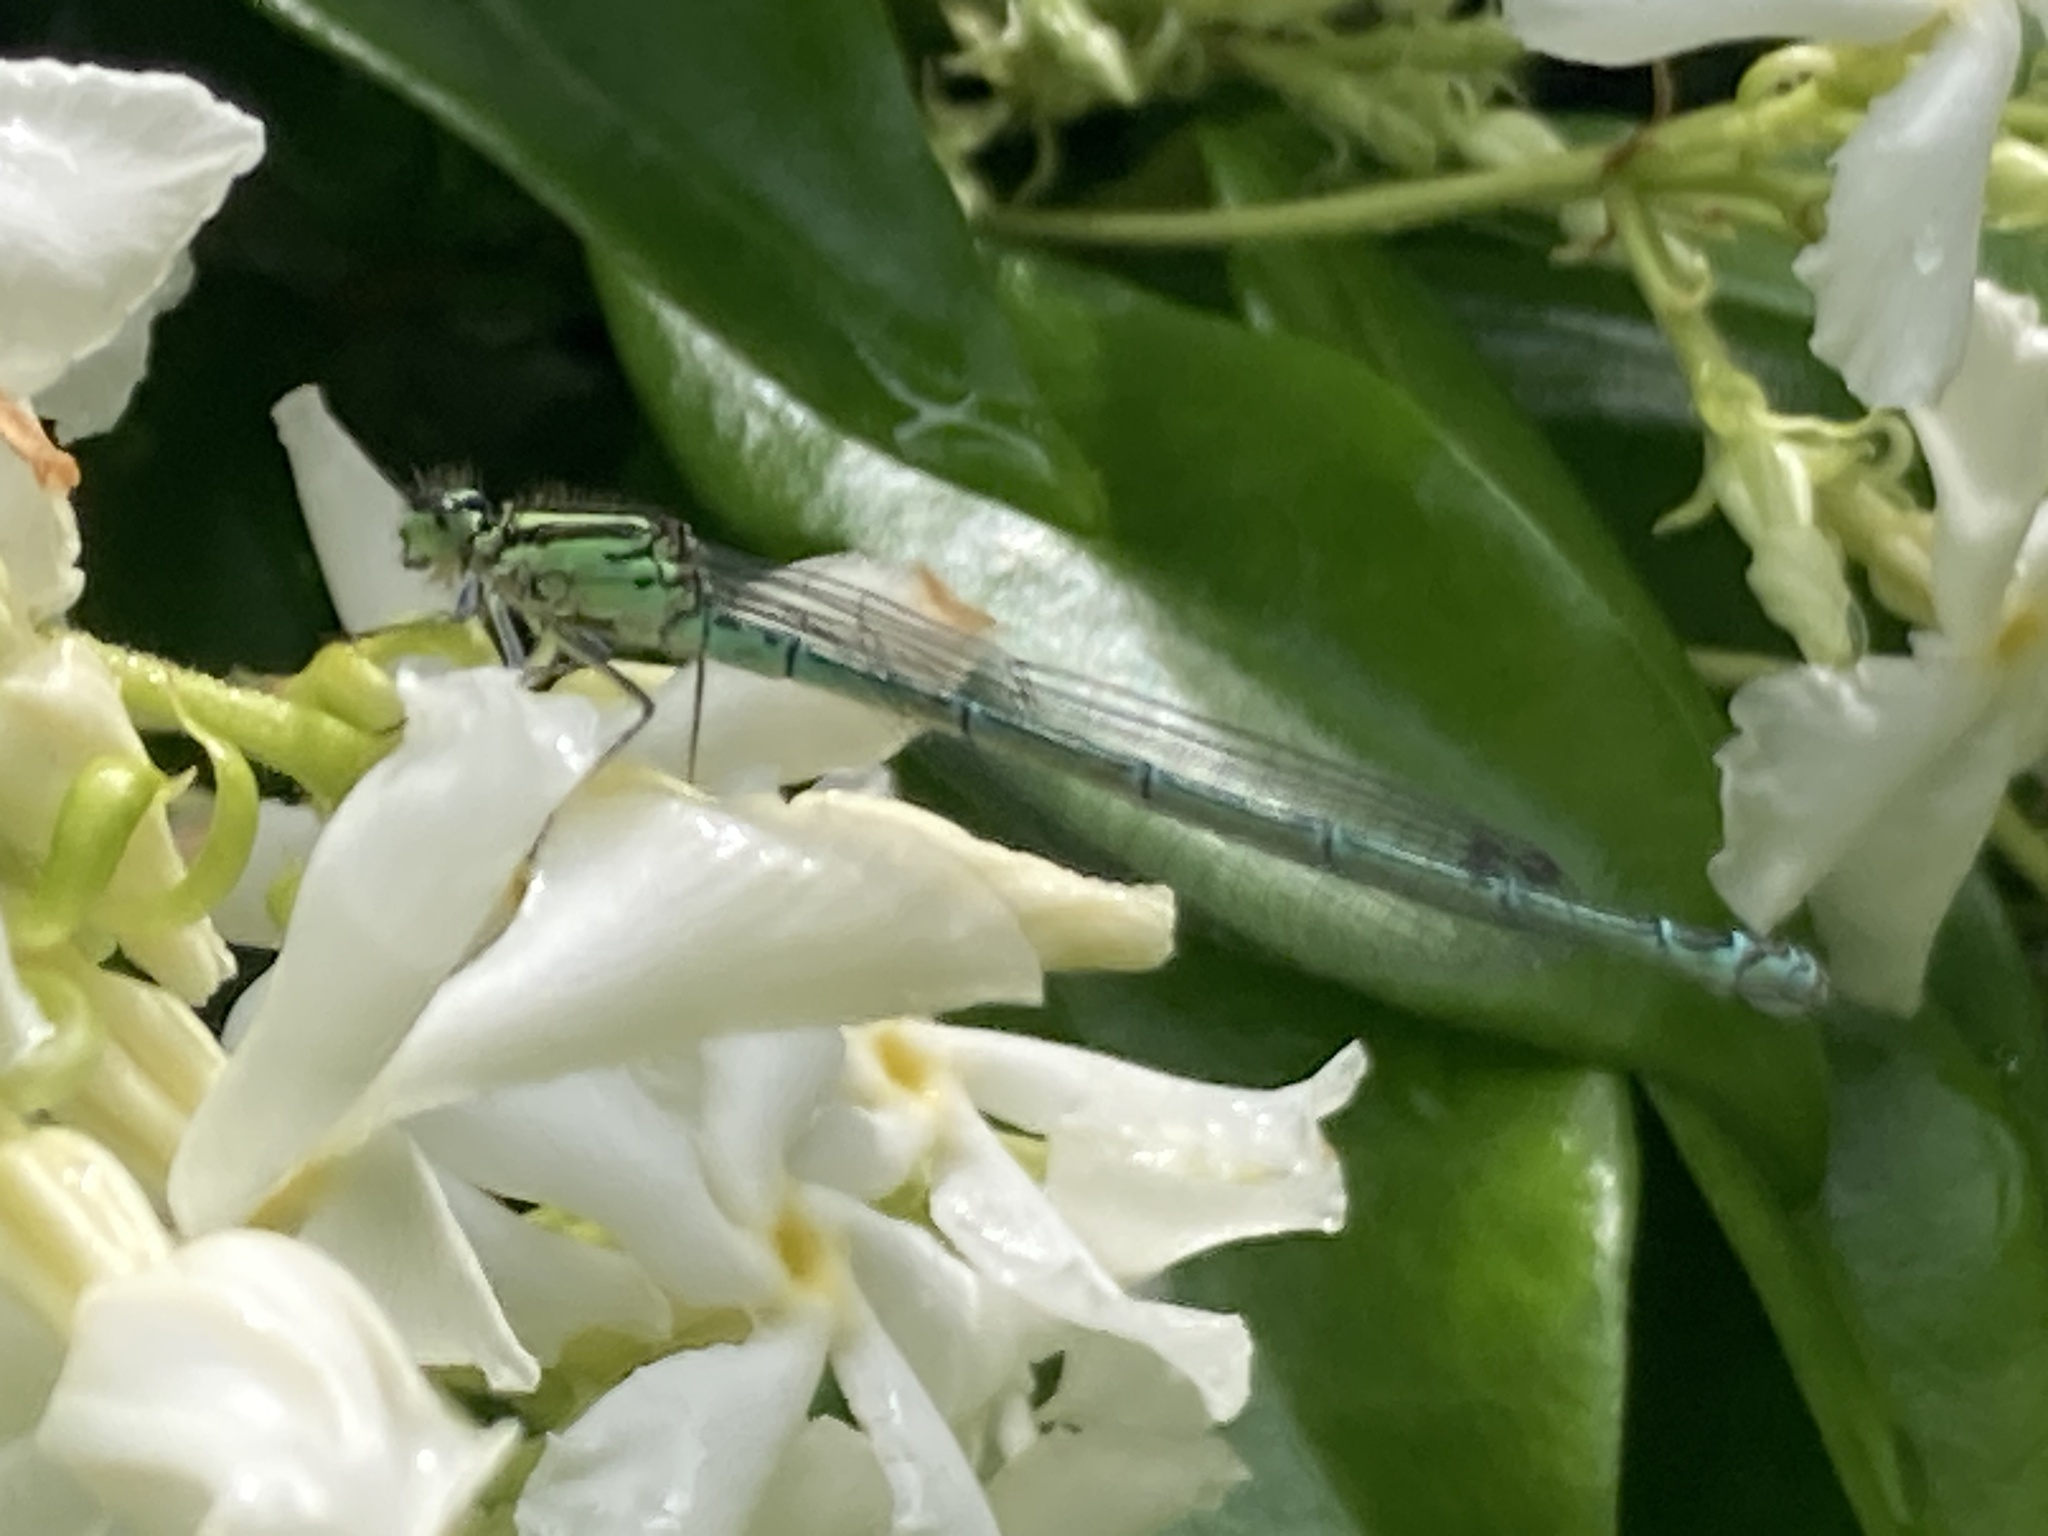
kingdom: Animalia
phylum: Arthropoda
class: Insecta
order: Odonata
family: Coenagrionidae
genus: Coenagrion
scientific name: Coenagrion puella
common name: Azure damselfly
